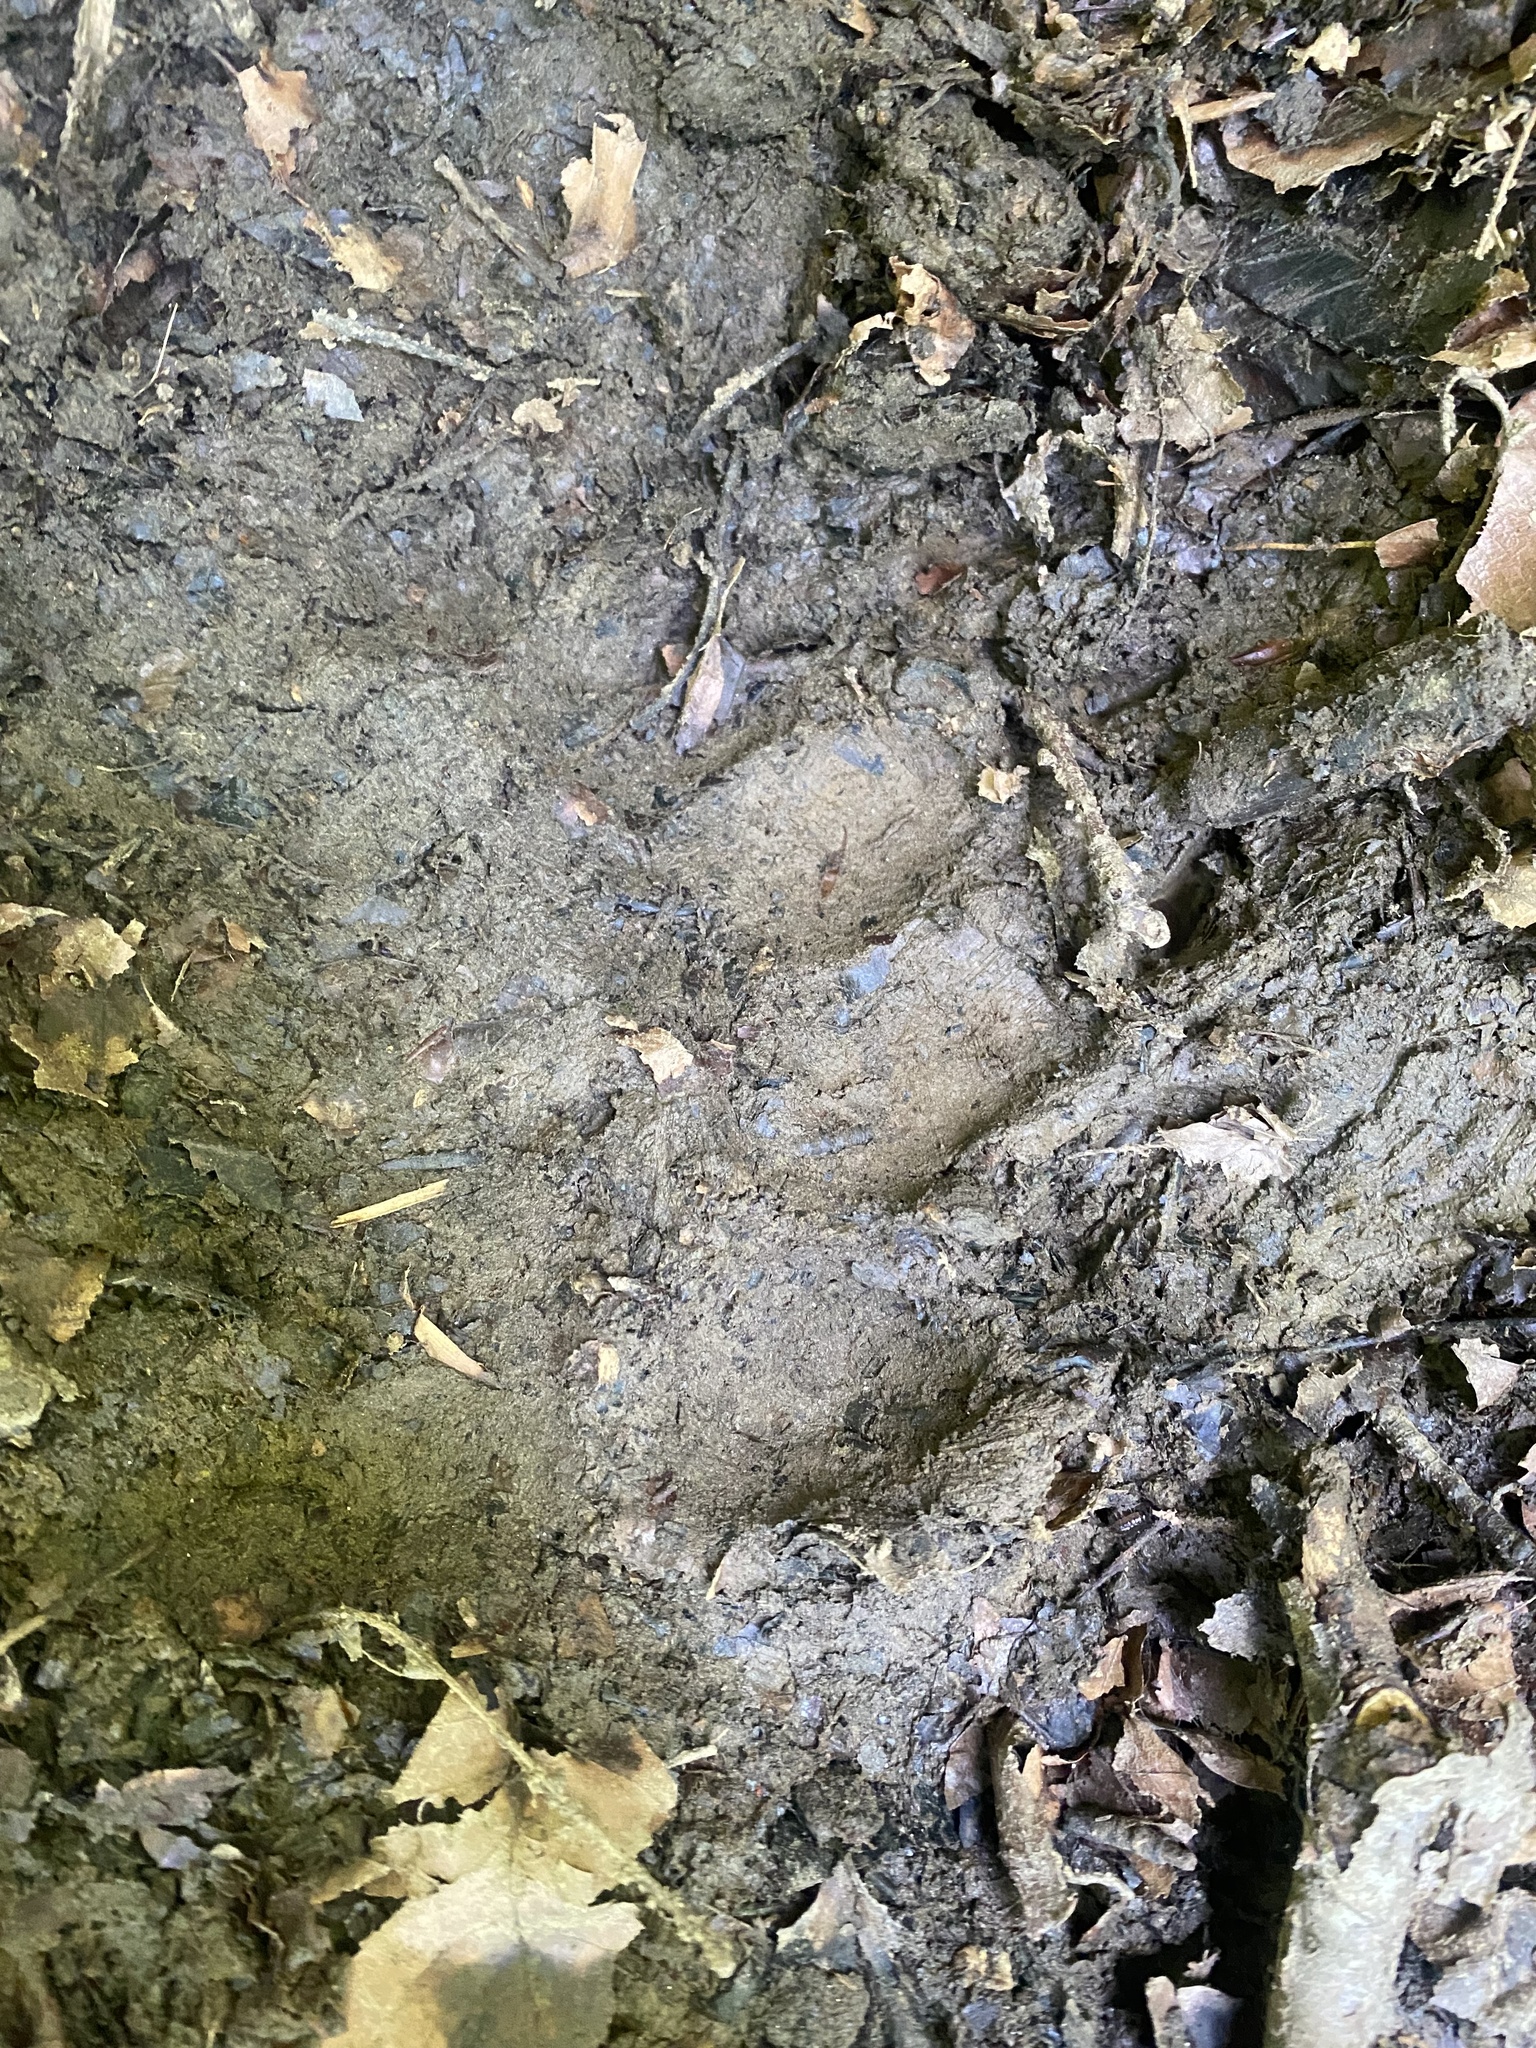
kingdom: Animalia
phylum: Chordata
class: Mammalia
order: Carnivora
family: Ursidae
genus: Ursus
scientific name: Ursus arctos
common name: Brown bear
